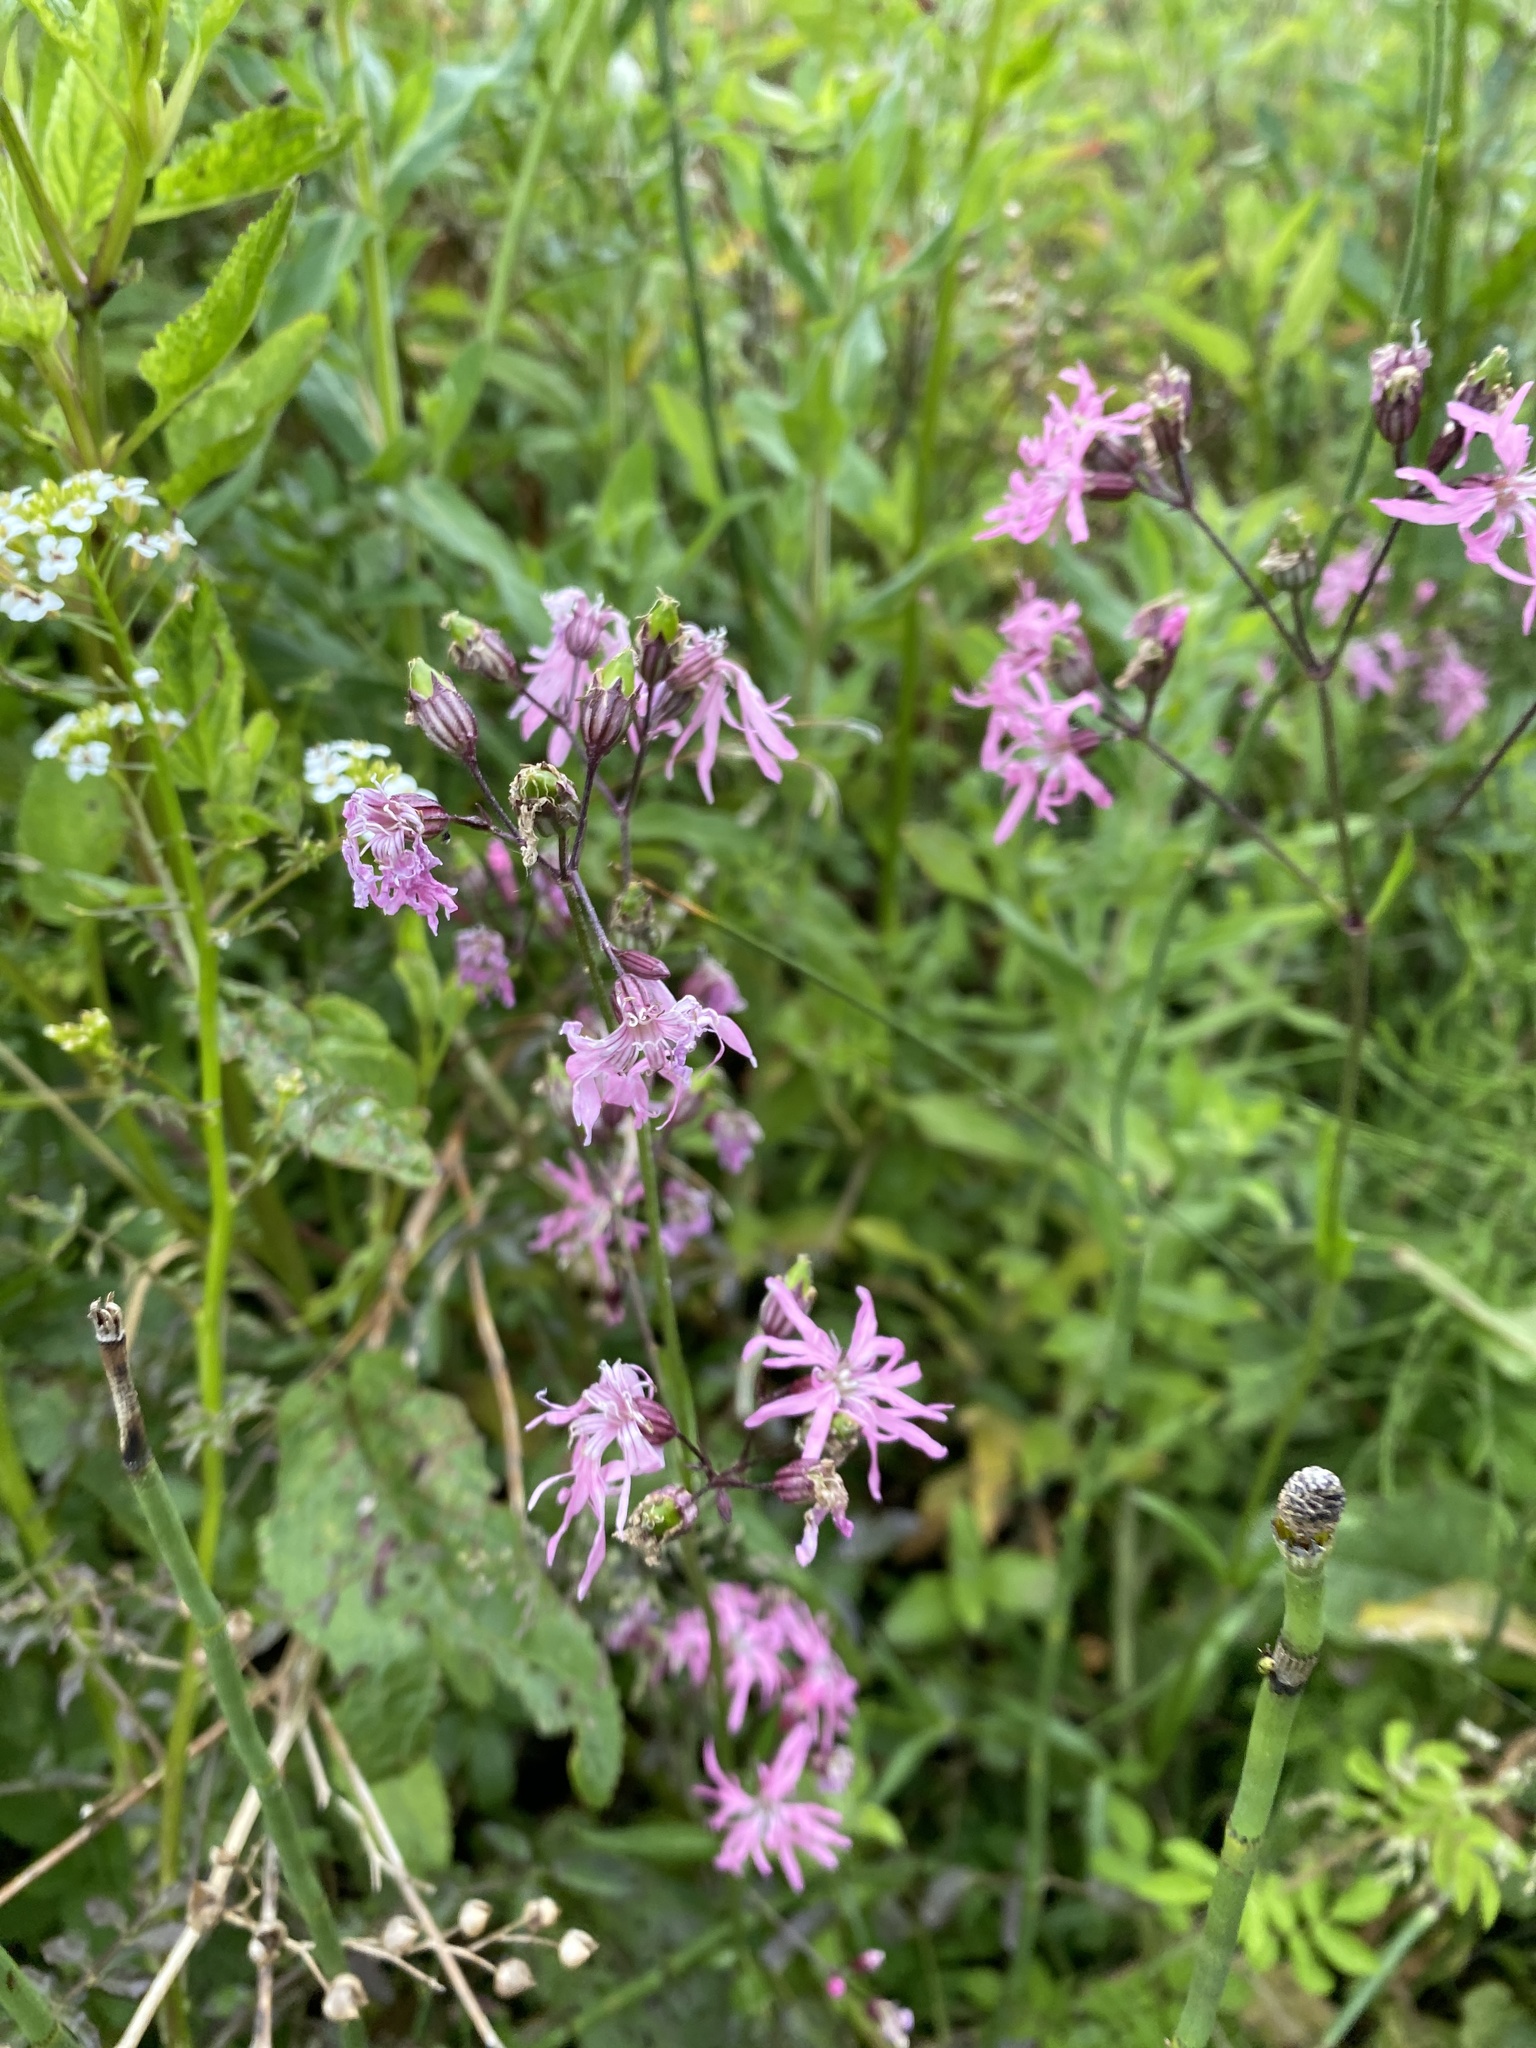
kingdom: Plantae
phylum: Tracheophyta
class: Magnoliopsida
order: Caryophyllales
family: Caryophyllaceae
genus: Silene
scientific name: Silene flos-cuculi
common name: Ragged-robin
